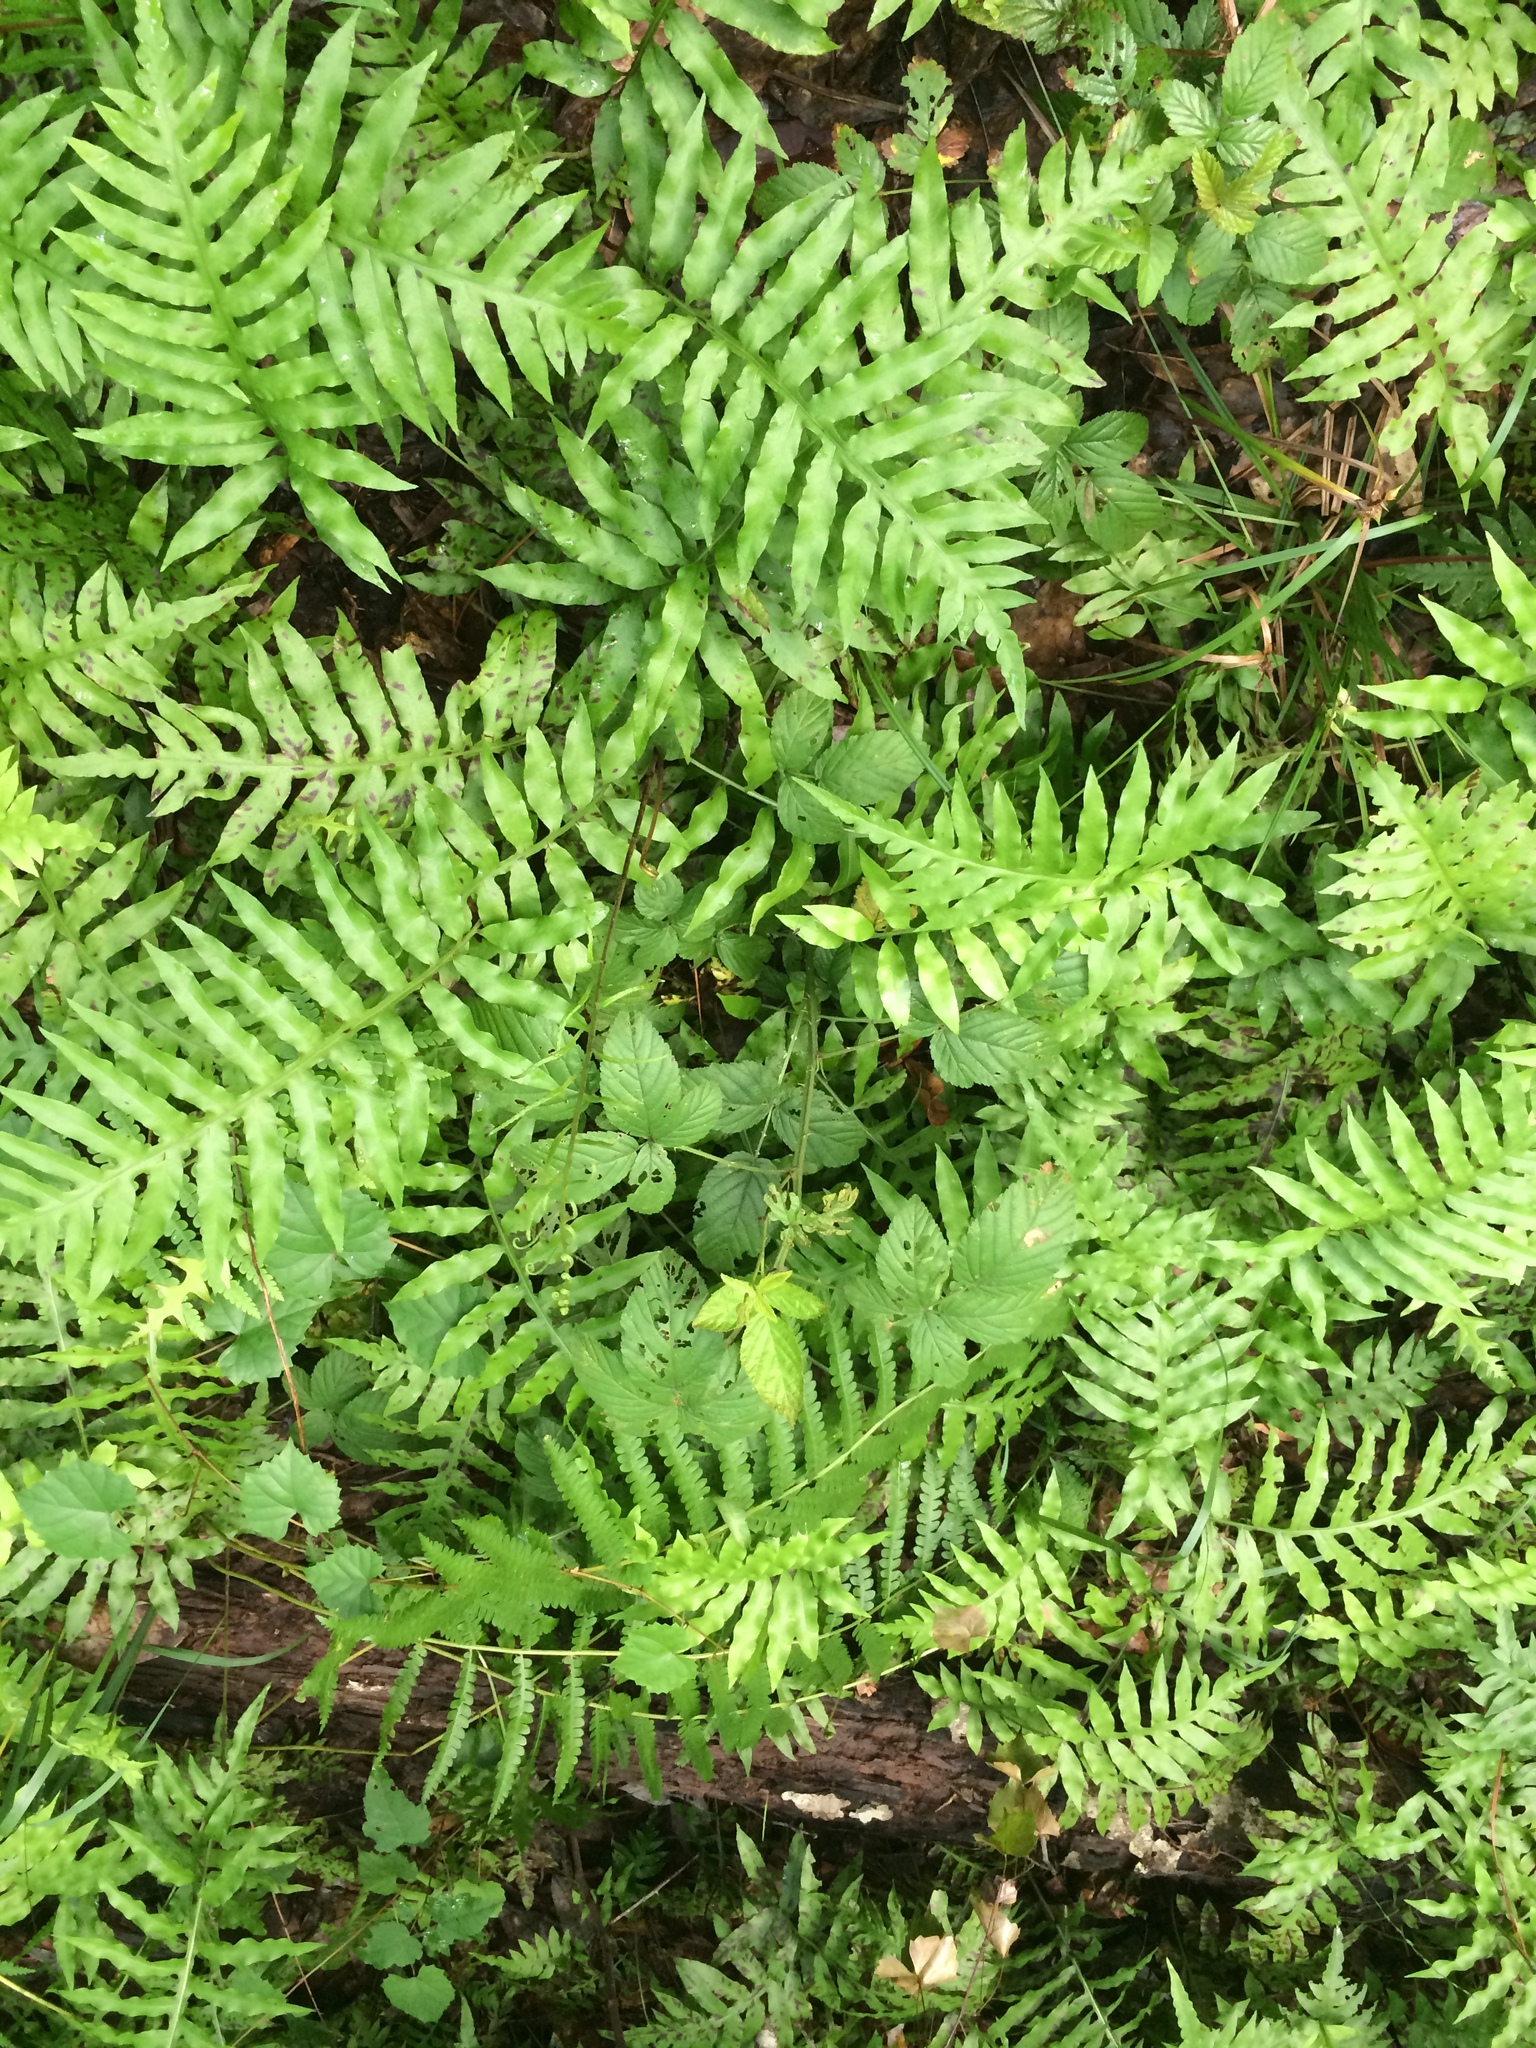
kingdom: Plantae
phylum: Tracheophyta
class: Polypodiopsida
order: Polypodiales
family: Blechnaceae
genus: Lorinseria
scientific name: Lorinseria areolata
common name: Dwarf chain fern
